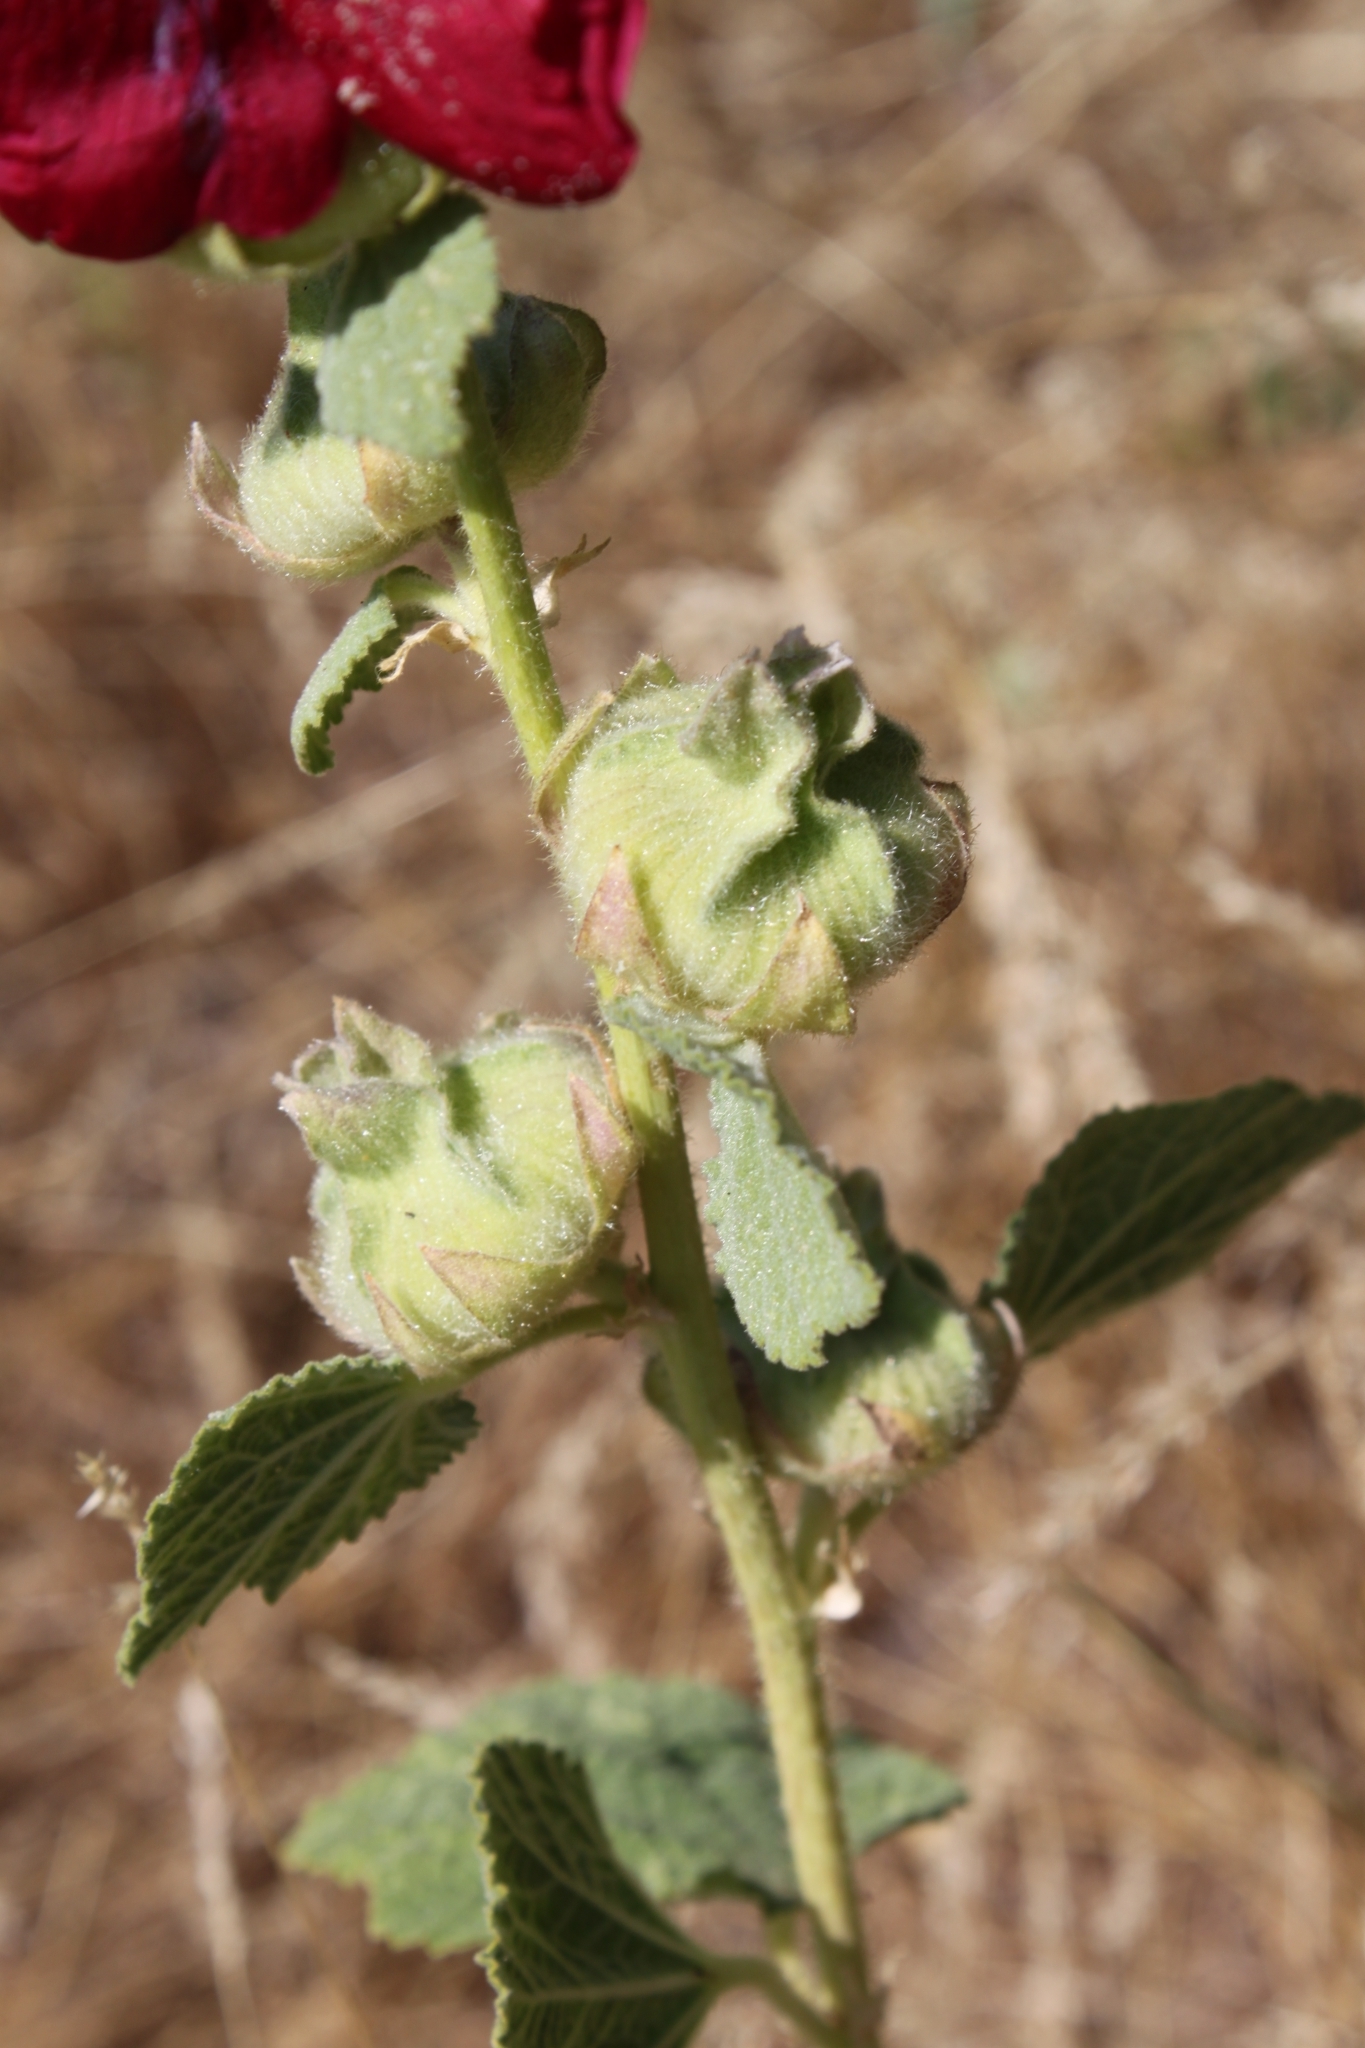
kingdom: Plantae
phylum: Tracheophyta
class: Magnoliopsida
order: Malvales
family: Malvaceae
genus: Alcea
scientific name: Alcea rosea
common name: Hollyhock
